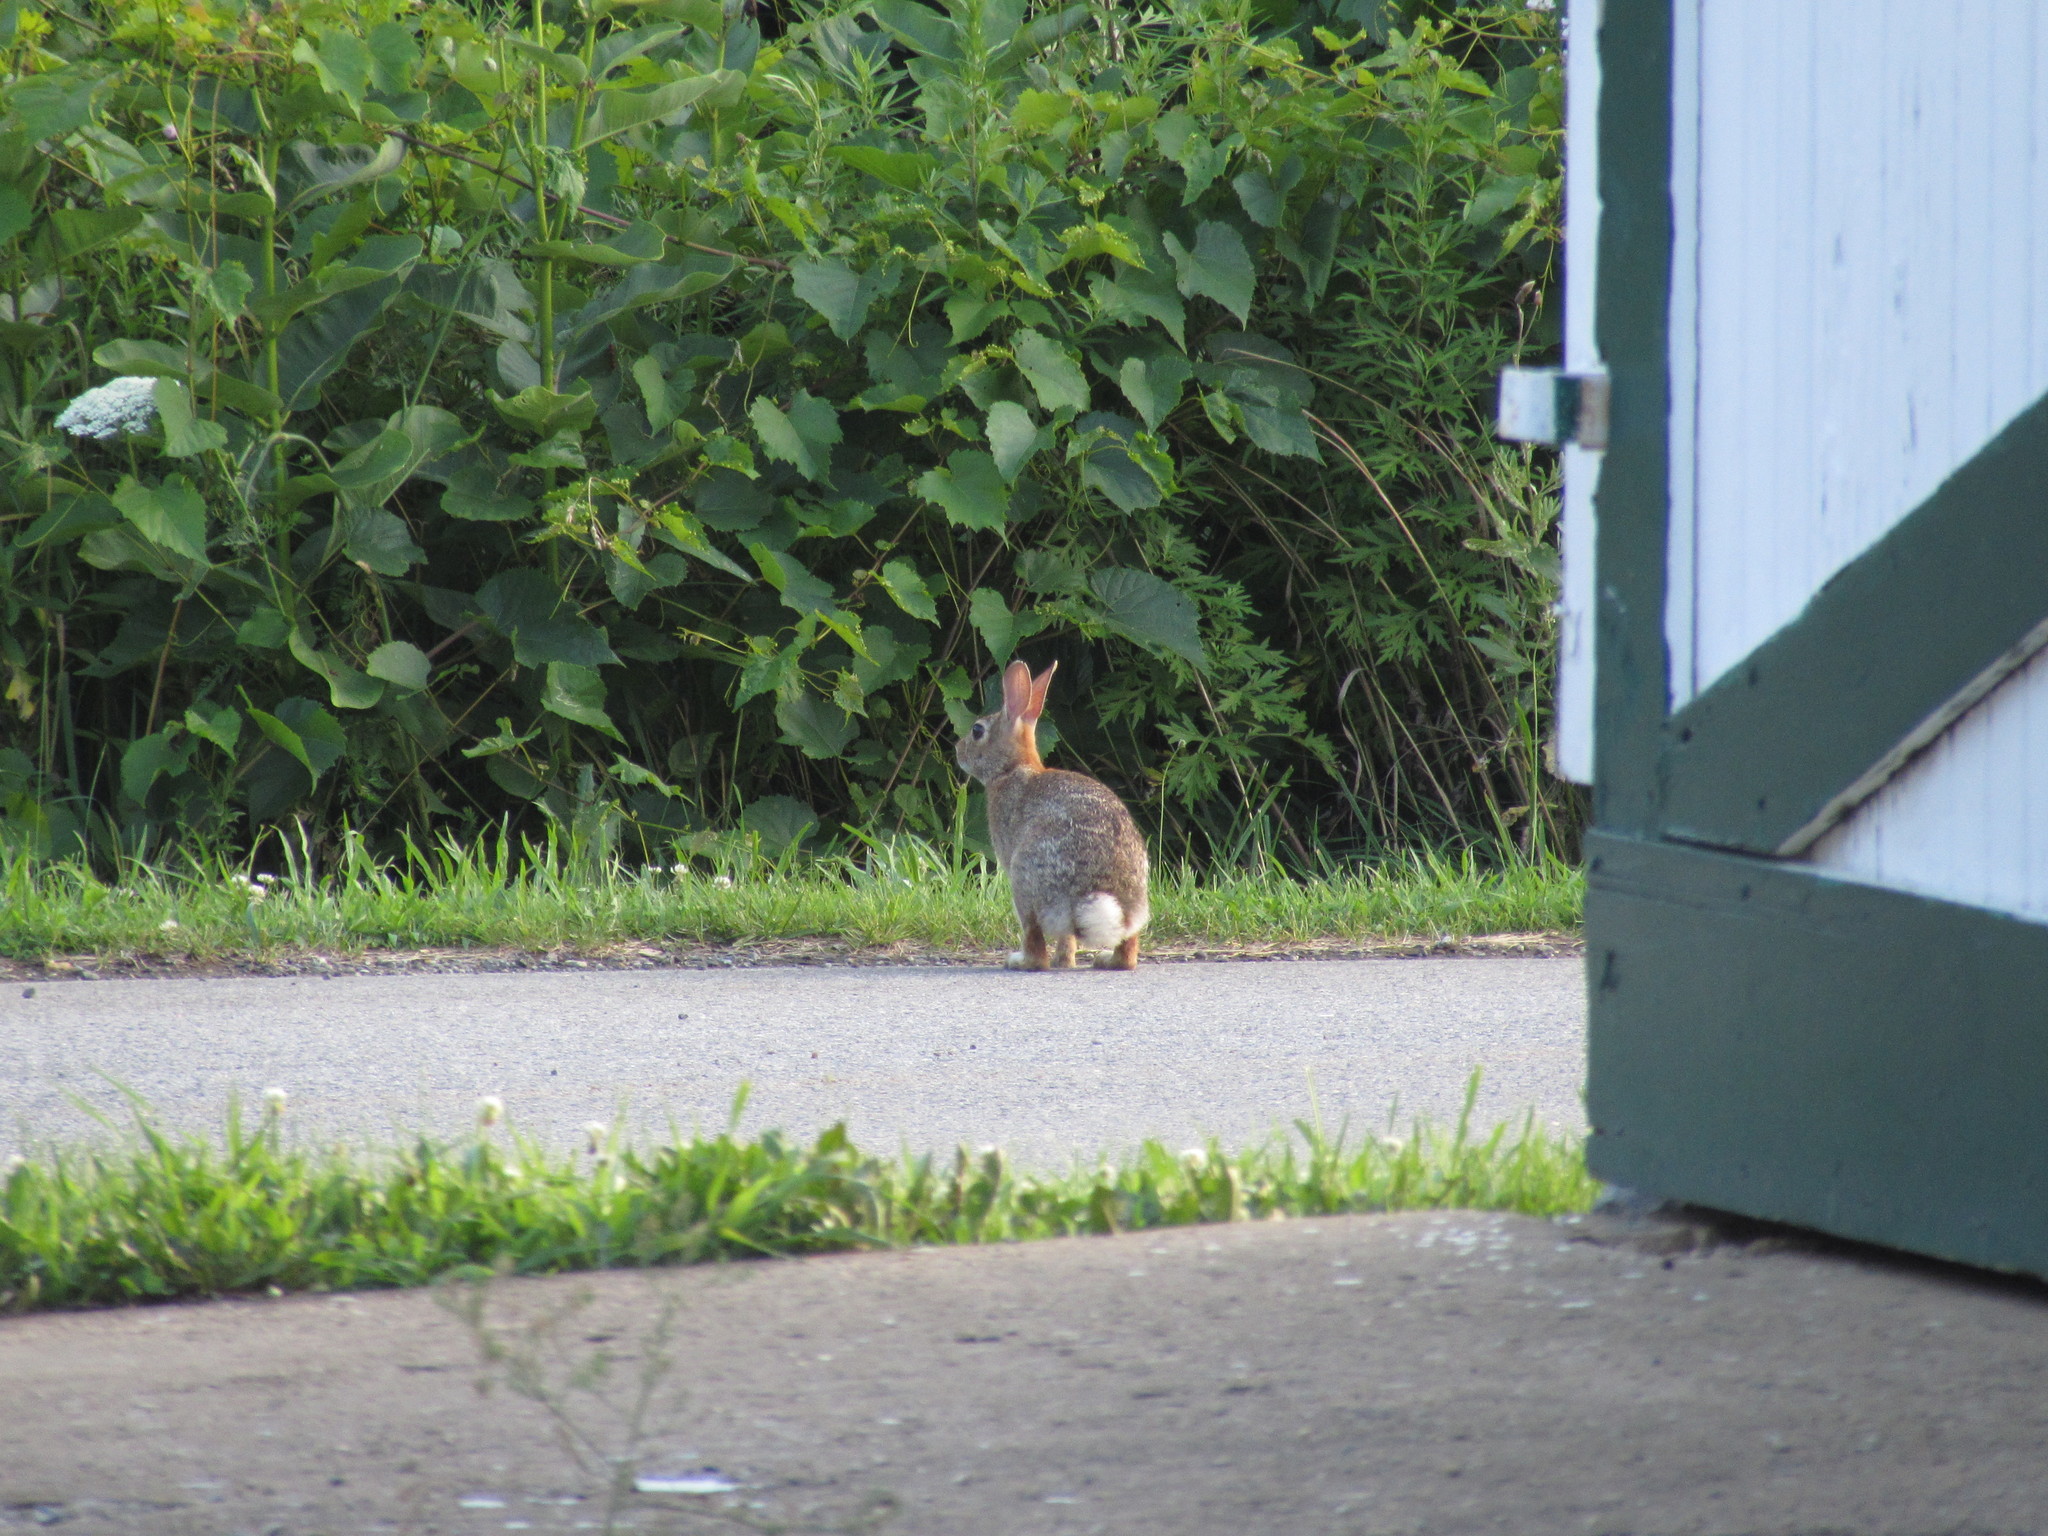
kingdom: Animalia
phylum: Chordata
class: Mammalia
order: Lagomorpha
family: Leporidae
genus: Sylvilagus
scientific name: Sylvilagus floridanus
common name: Eastern cottontail
